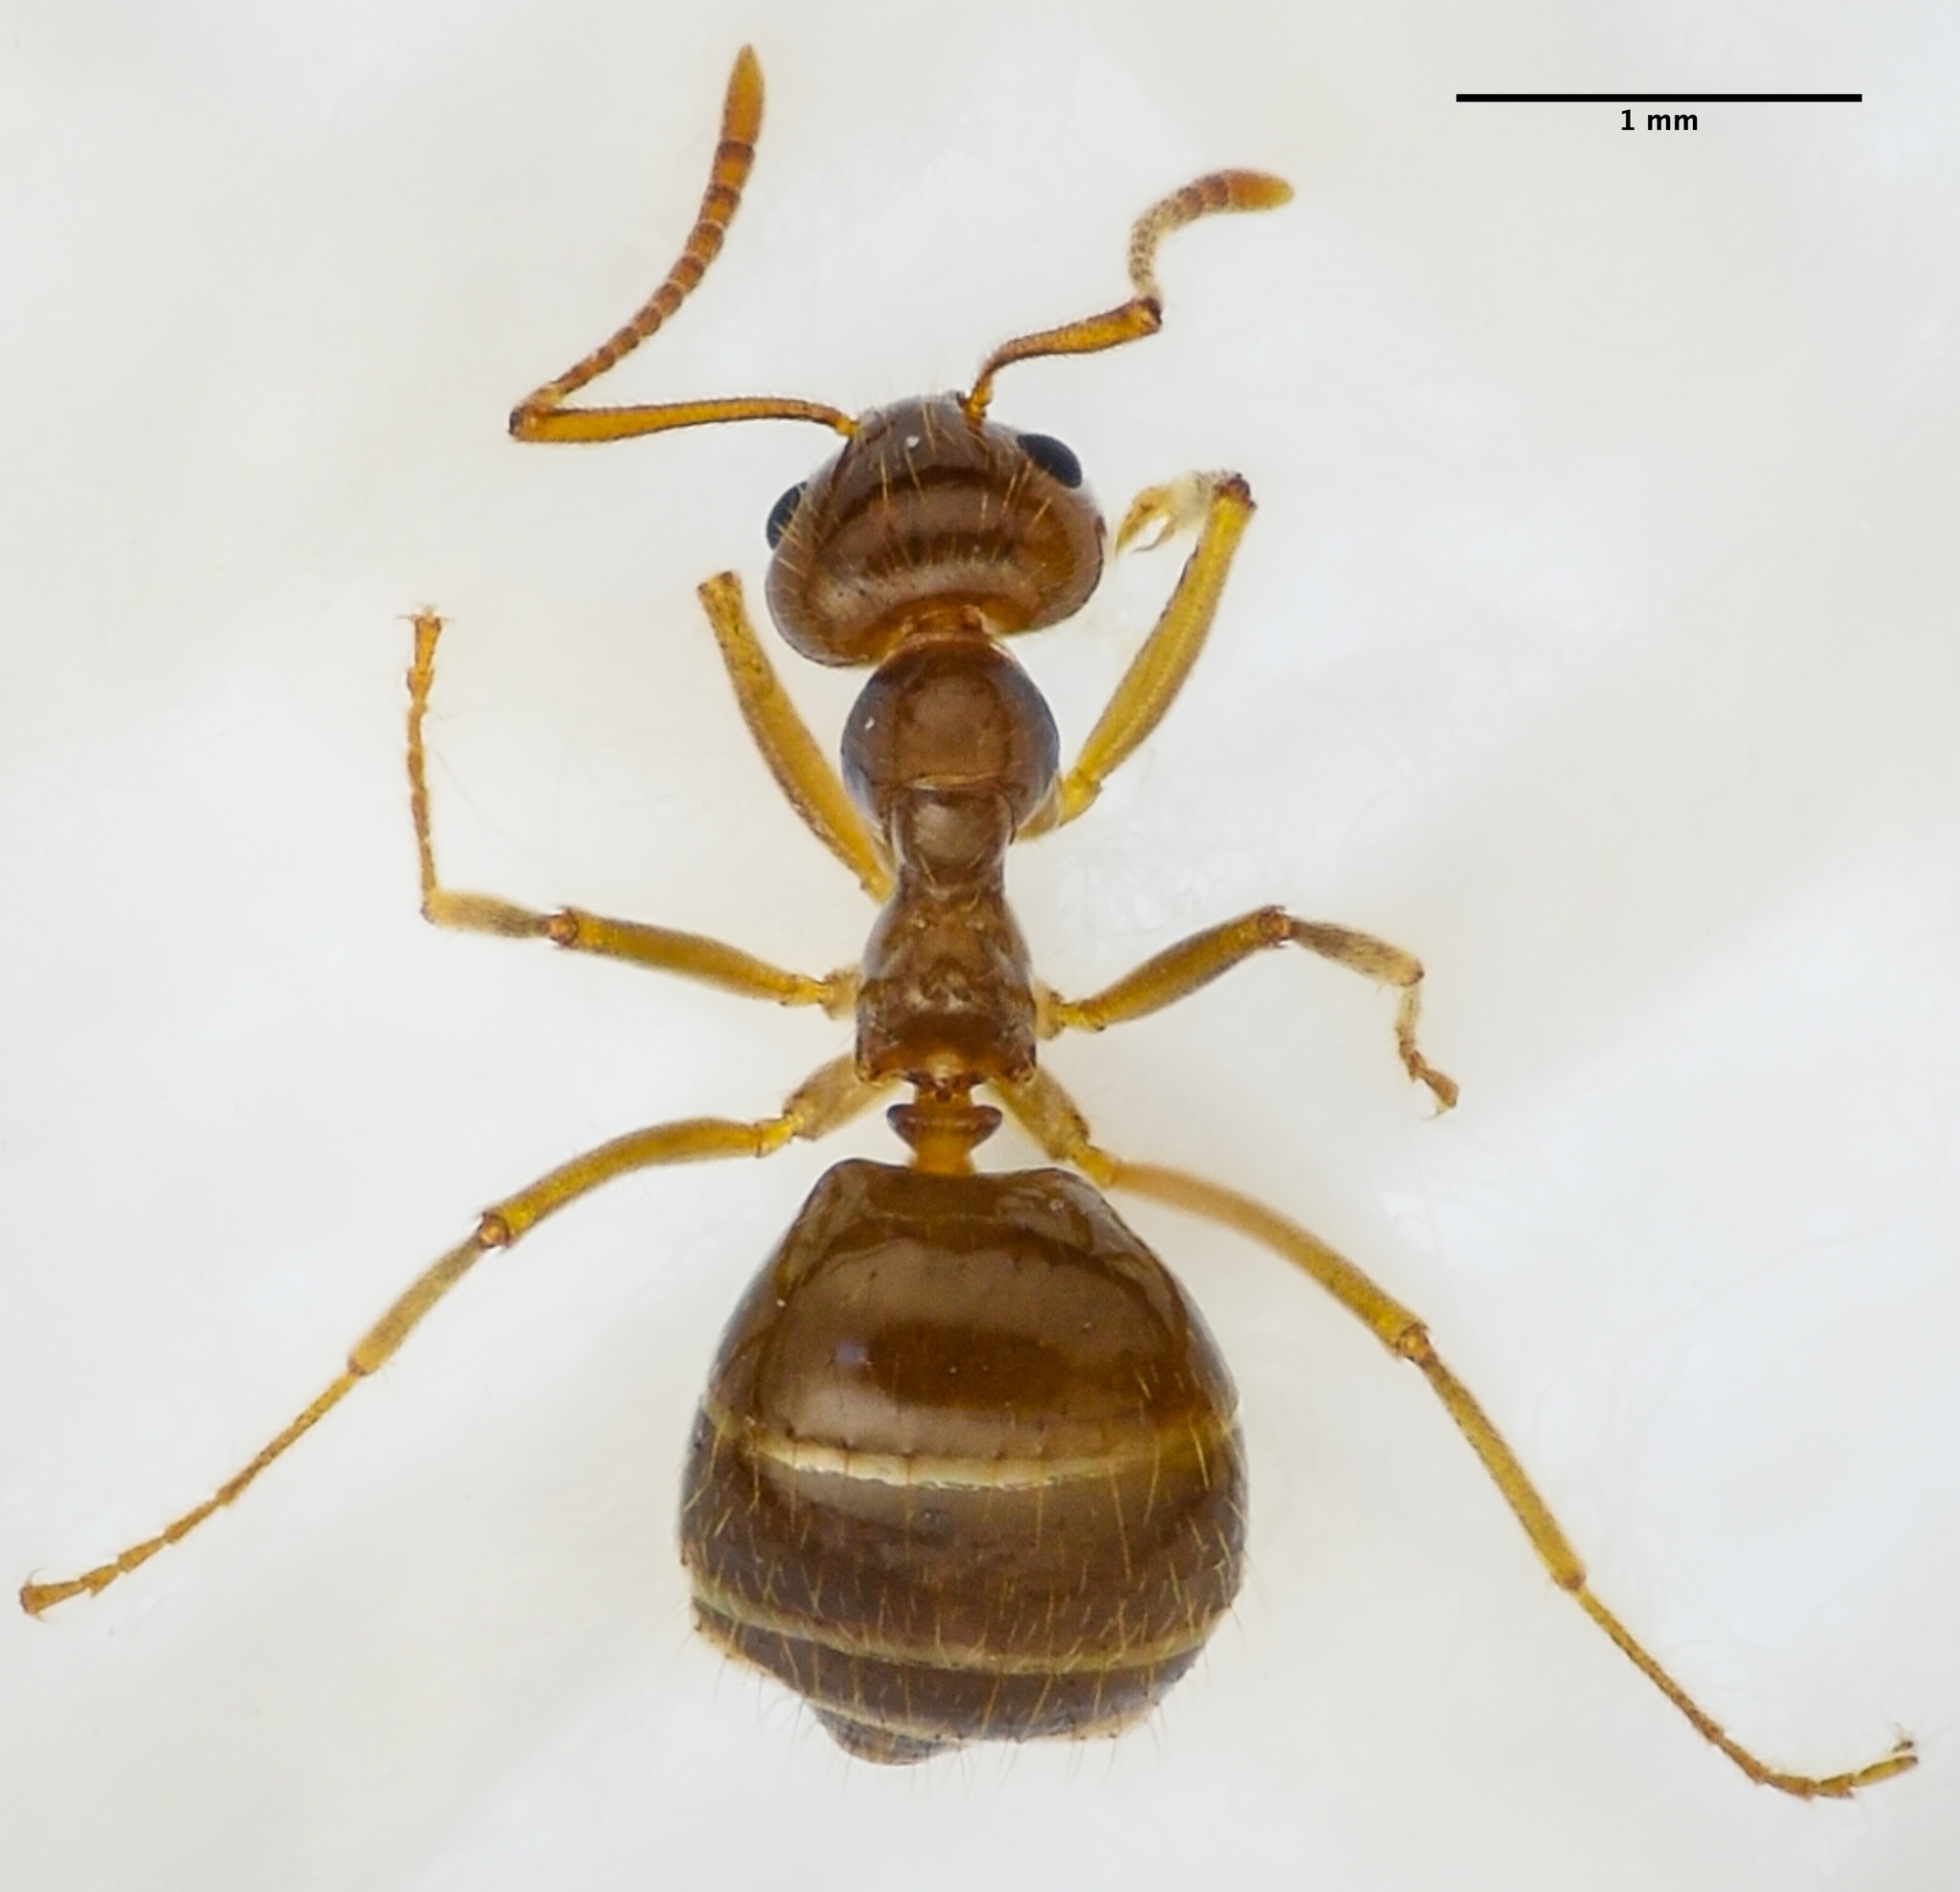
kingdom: Animalia
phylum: Arthropoda
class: Insecta
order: Hymenoptera
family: Formicidae
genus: Prenolepis
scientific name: Prenolepis imparis
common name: Small honey ant
